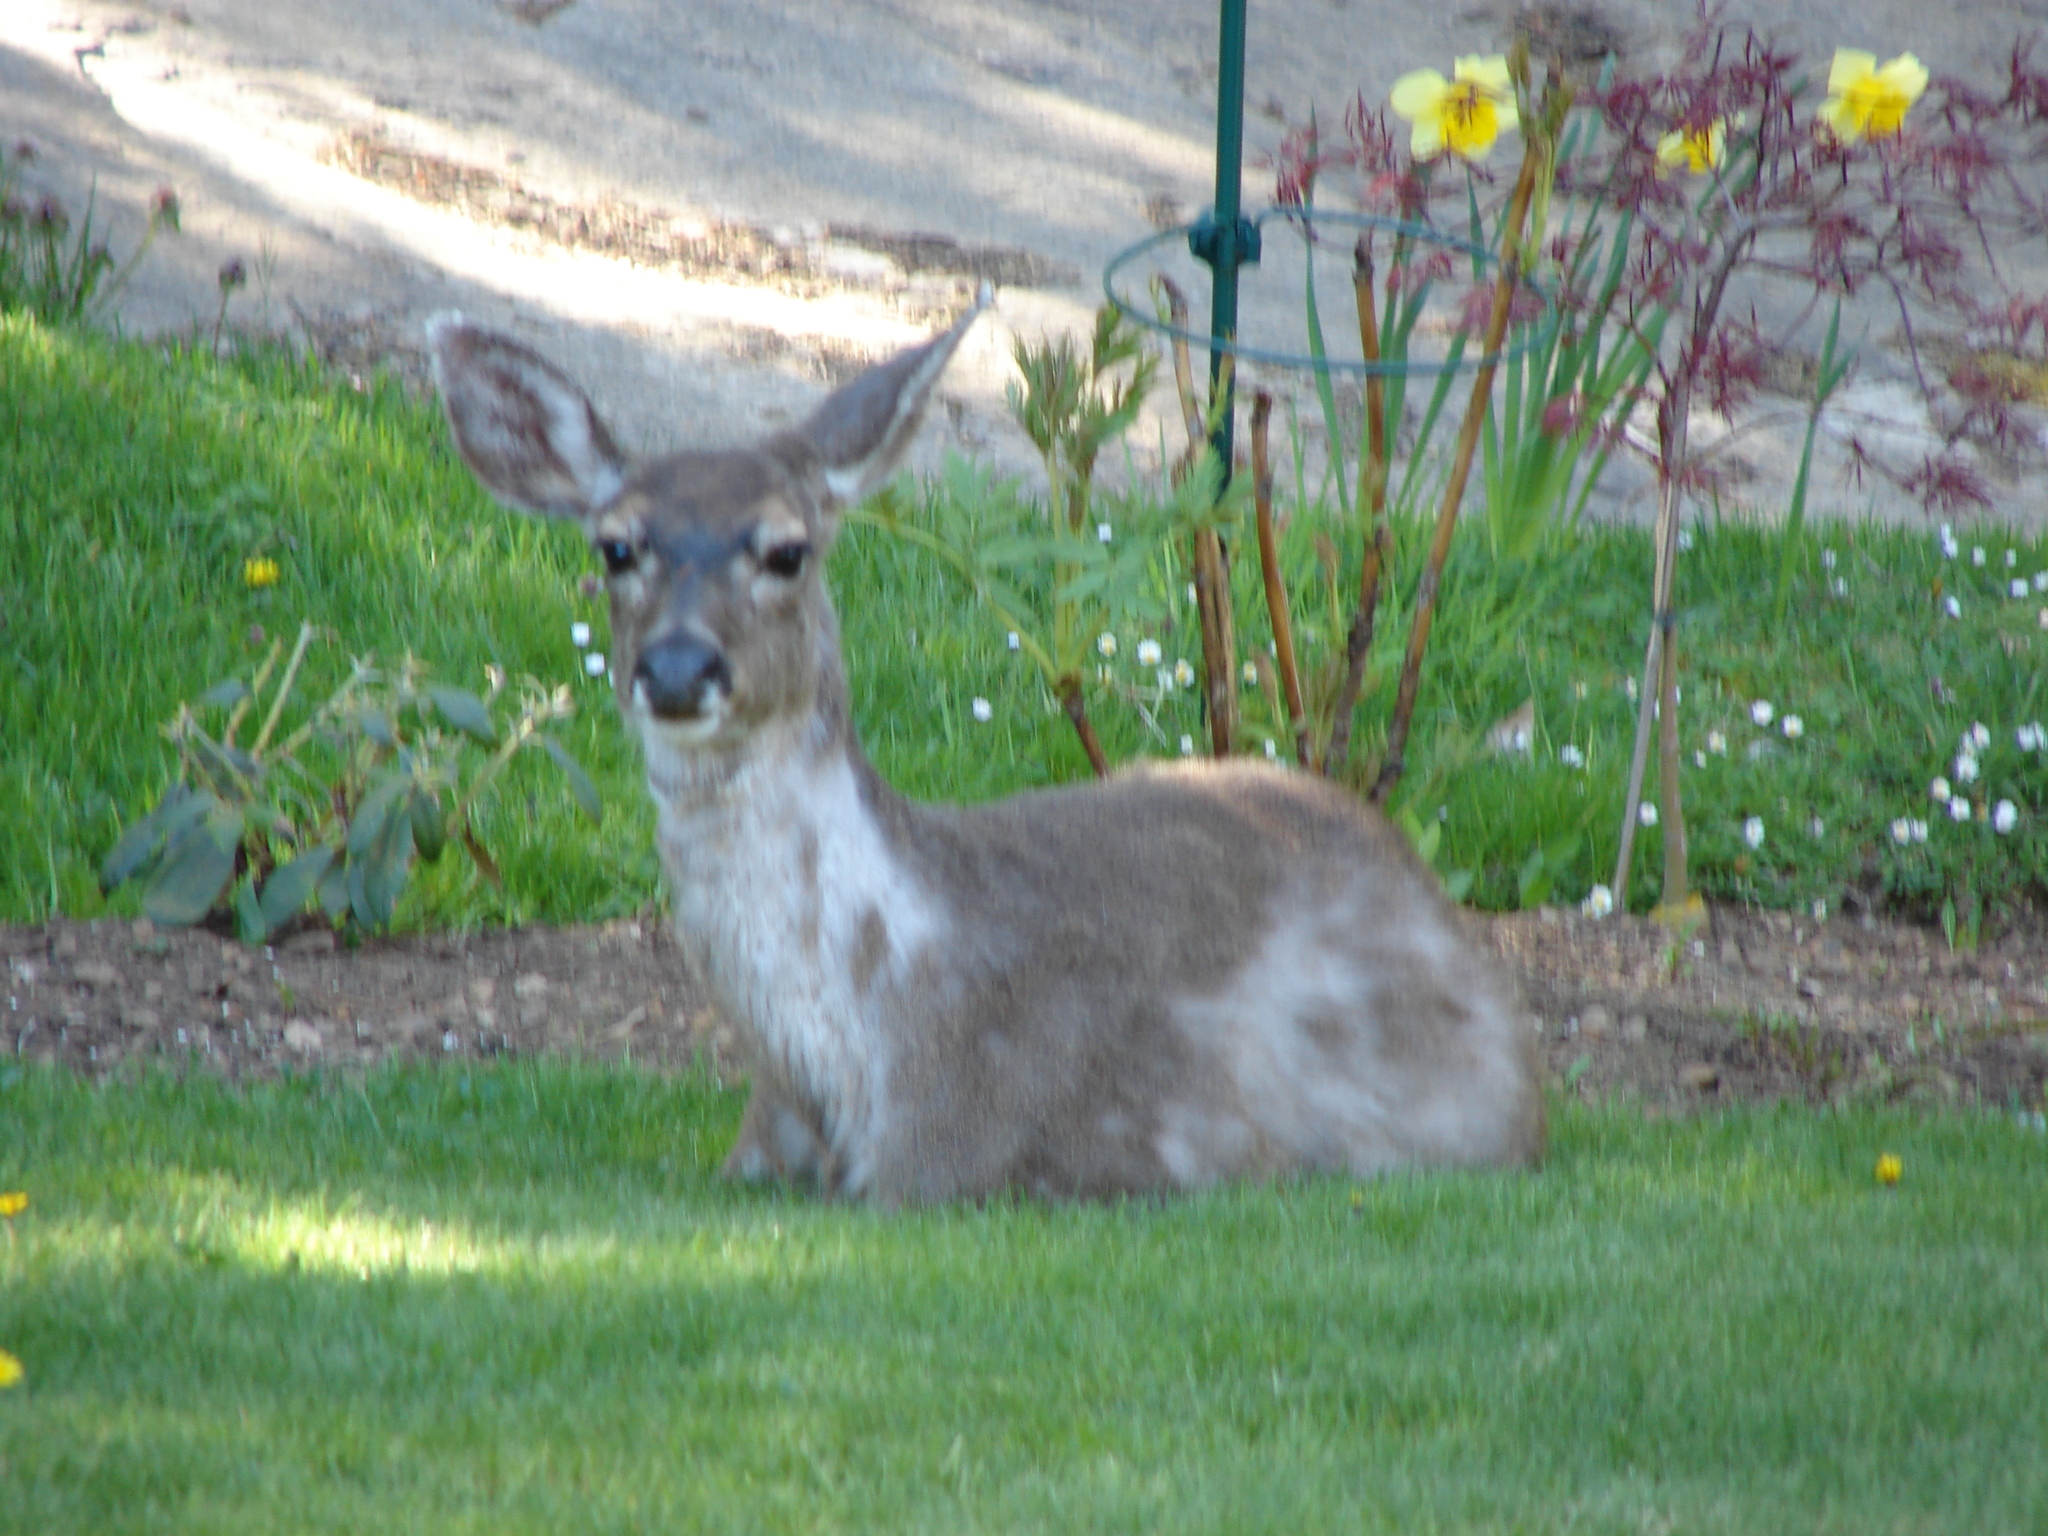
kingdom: Animalia
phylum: Chordata
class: Mammalia
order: Artiodactyla
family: Cervidae
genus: Odocoileus
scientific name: Odocoileus hemionus
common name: Mule deer
